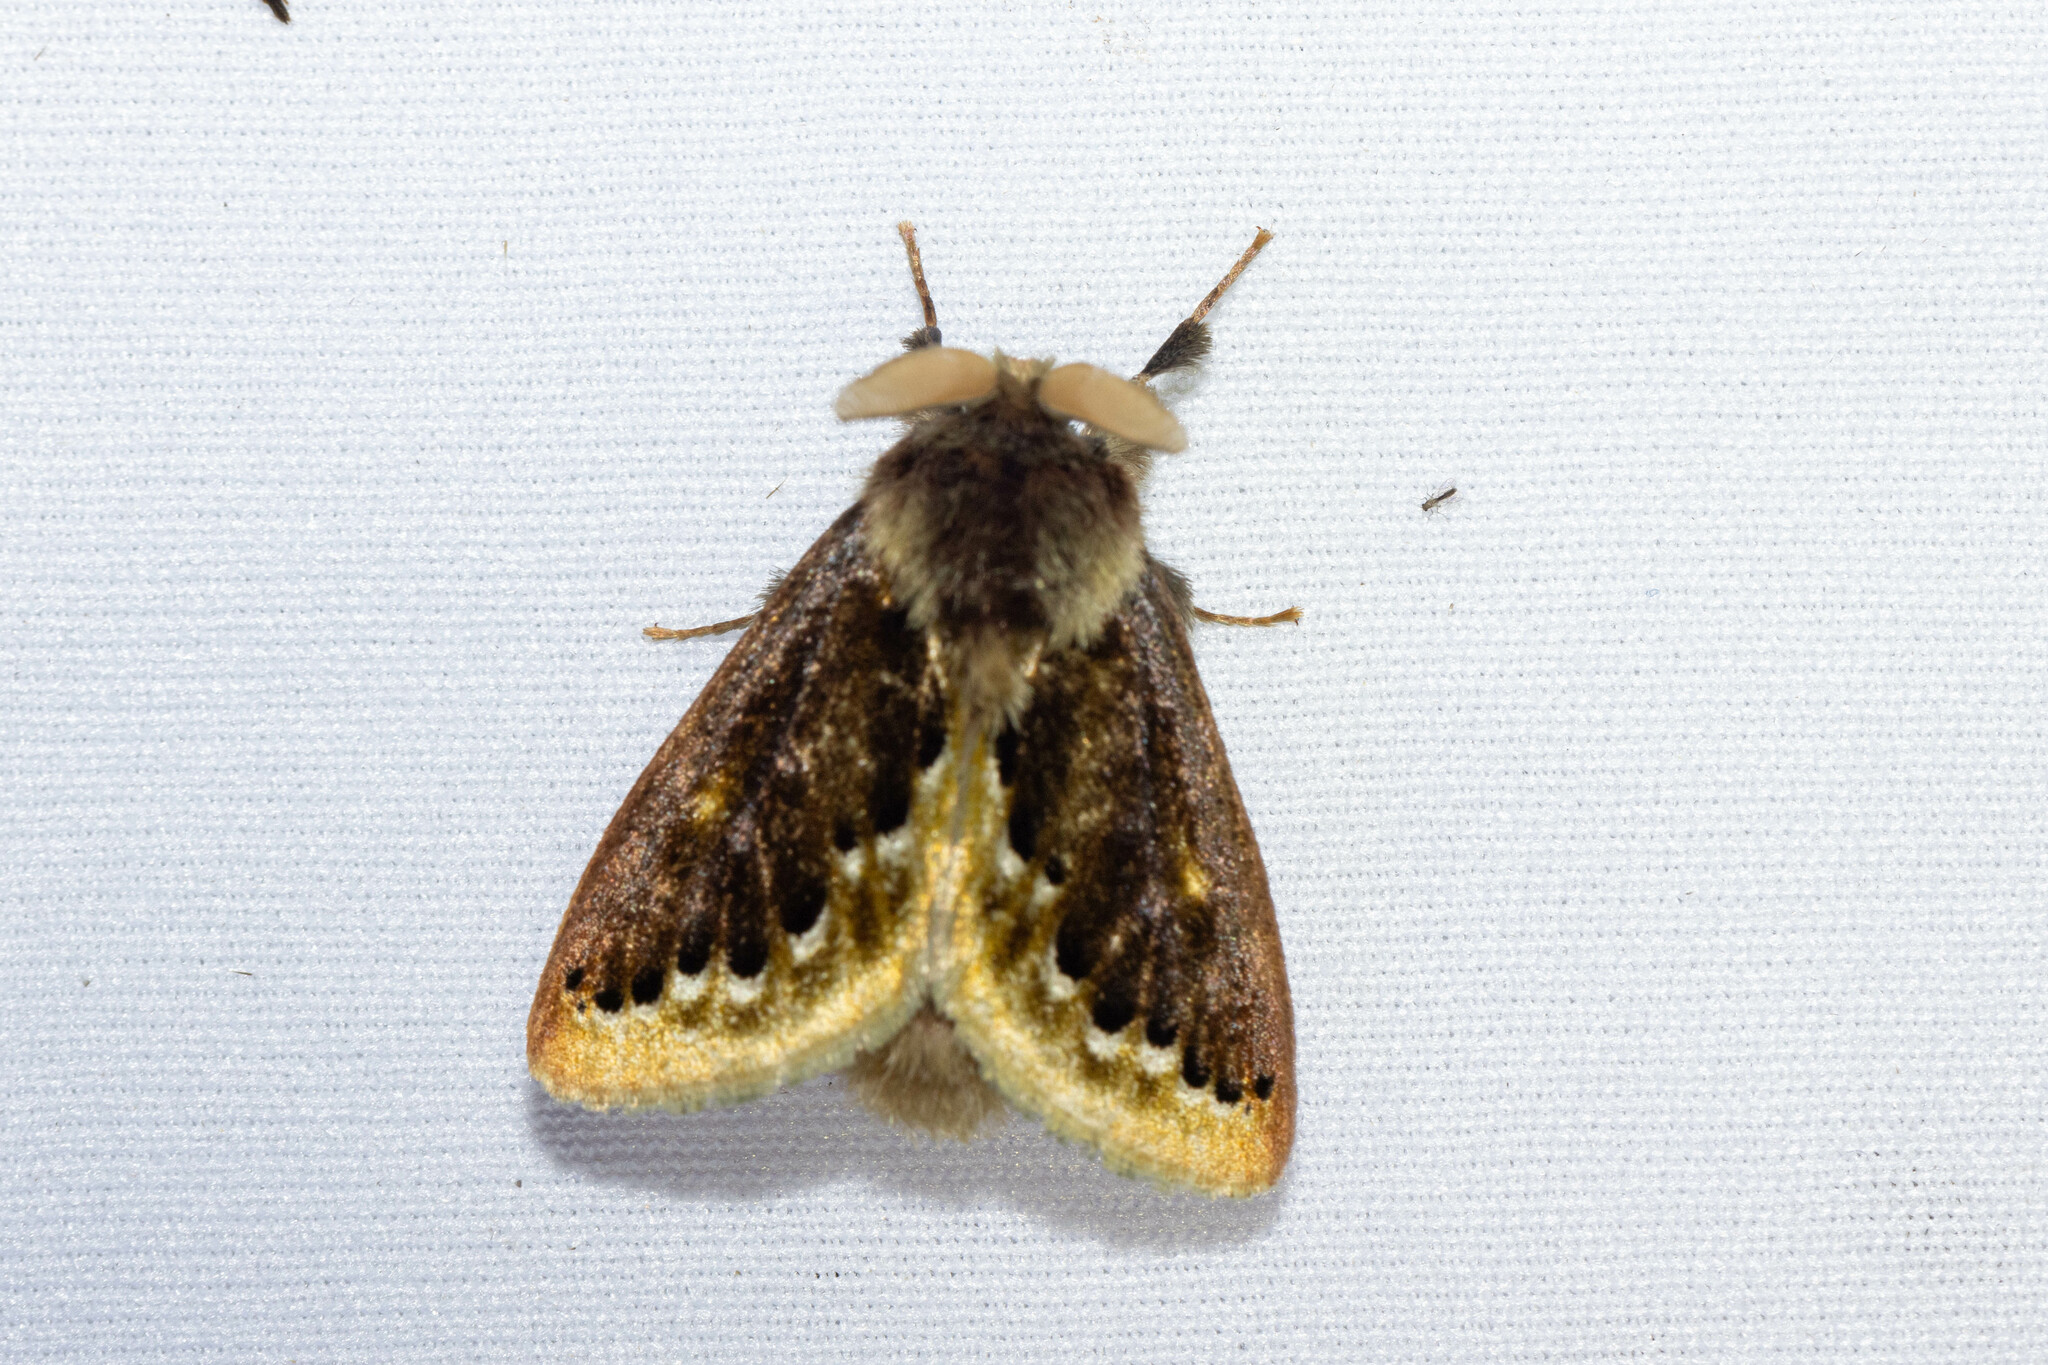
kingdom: Animalia
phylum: Arthropoda
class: Insecta
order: Lepidoptera
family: Megalopygidae
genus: Macara
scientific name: Macara alydda
